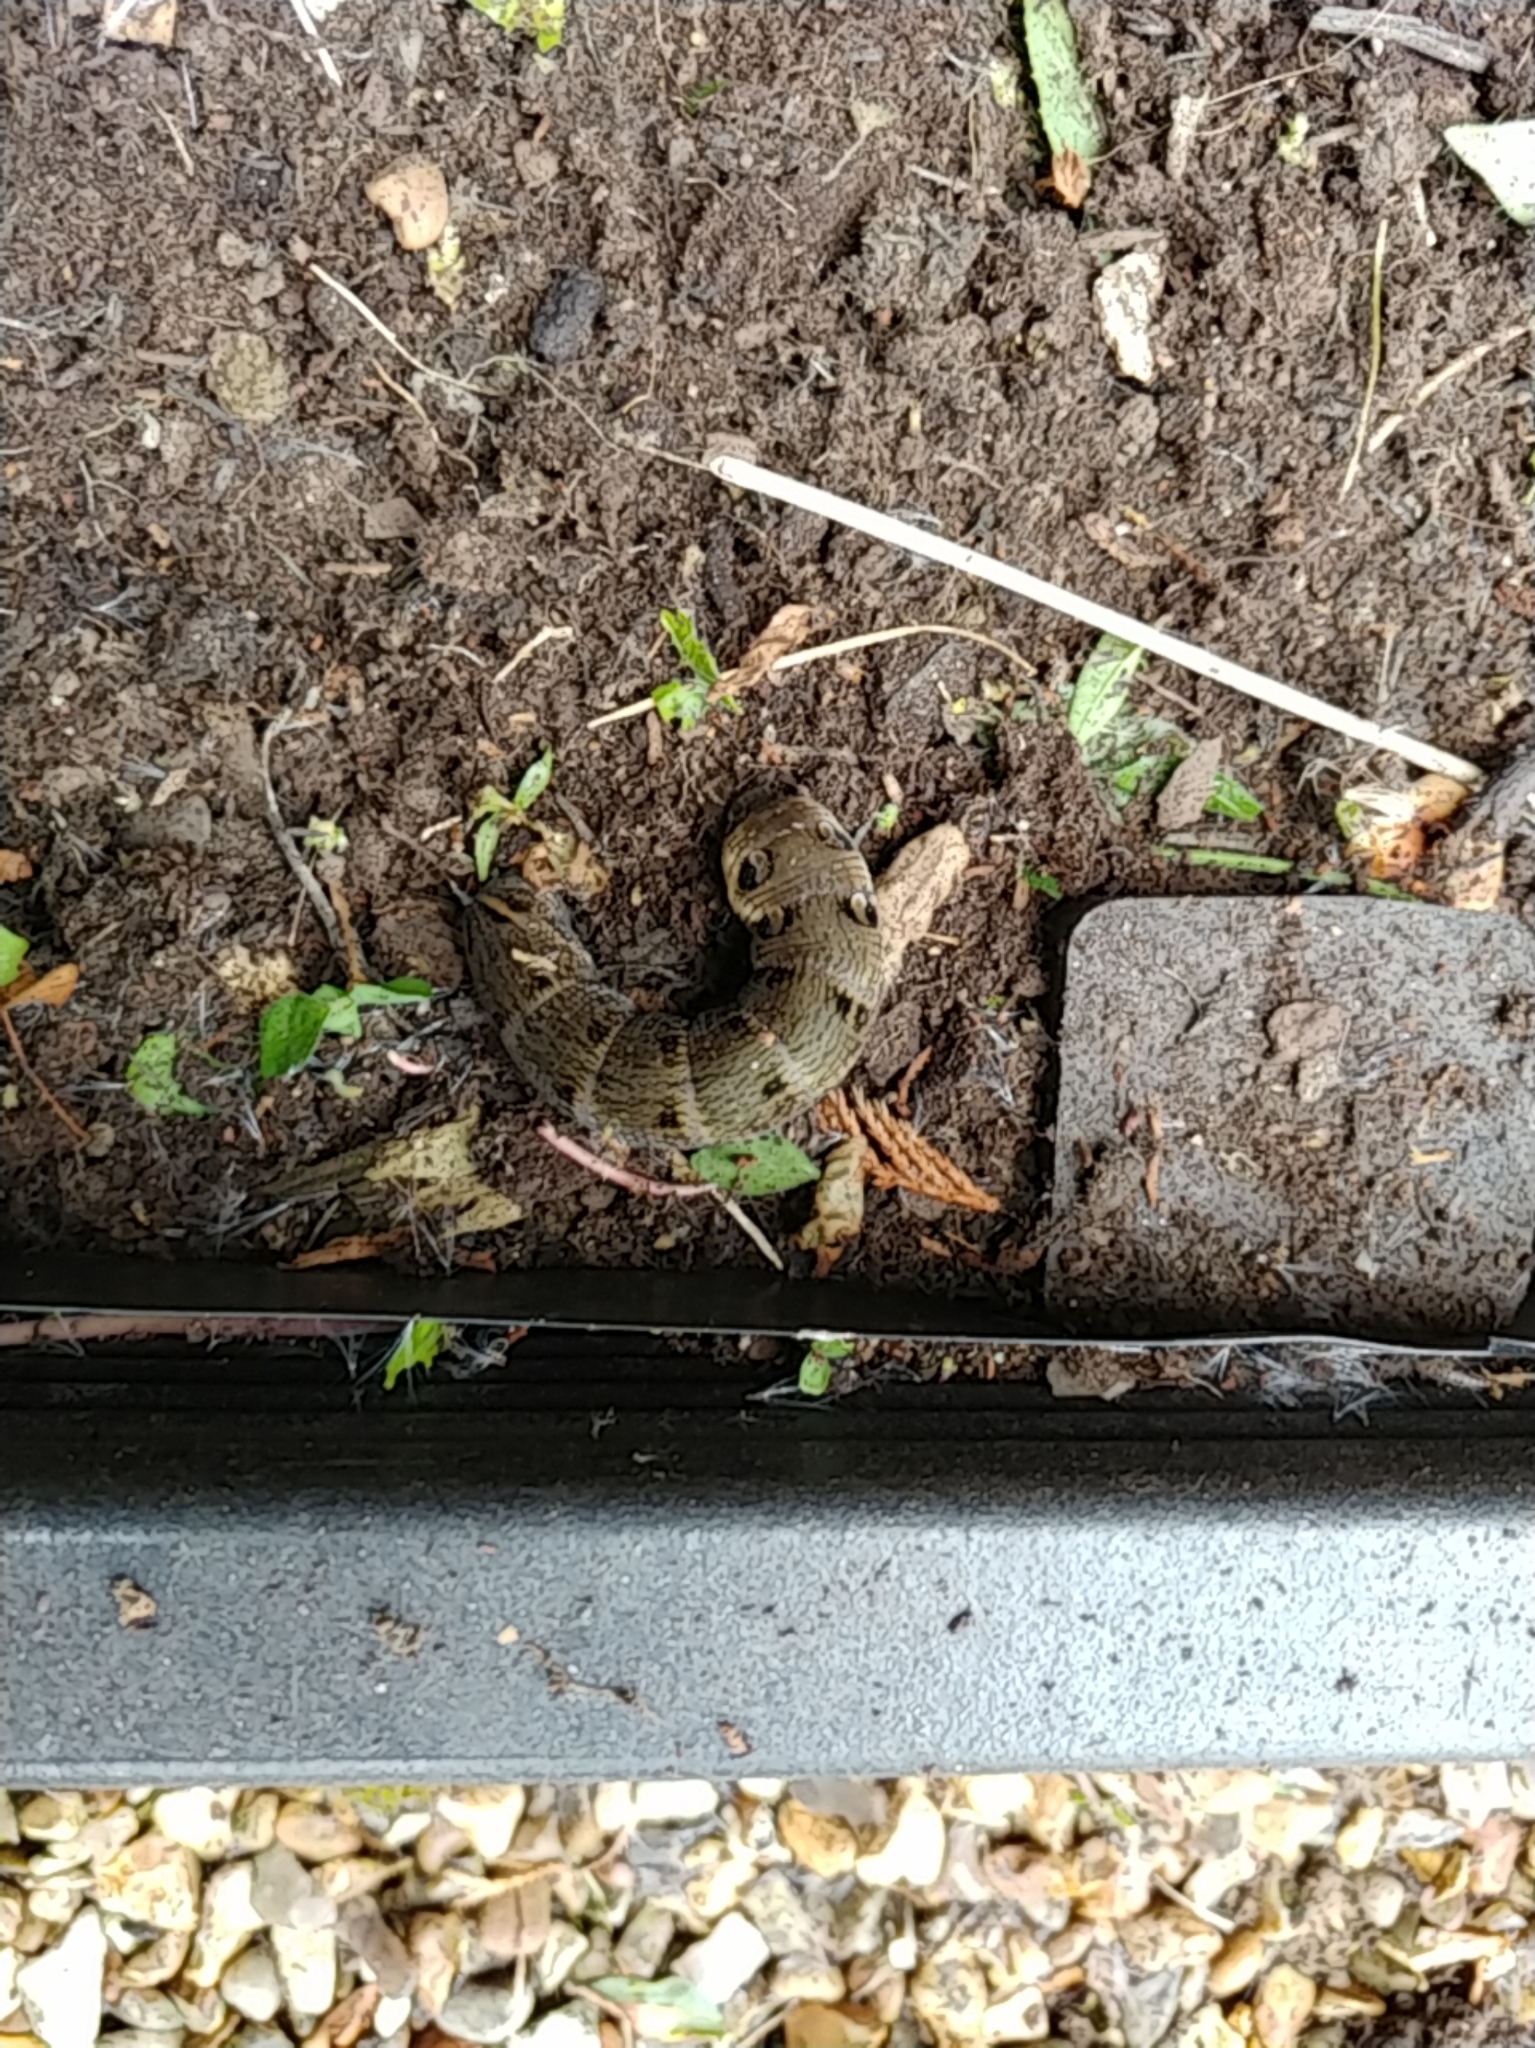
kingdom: Animalia
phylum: Arthropoda
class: Insecta
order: Lepidoptera
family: Sphingidae
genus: Deilephila
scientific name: Deilephila elpenor
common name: Elephant hawk-moth
